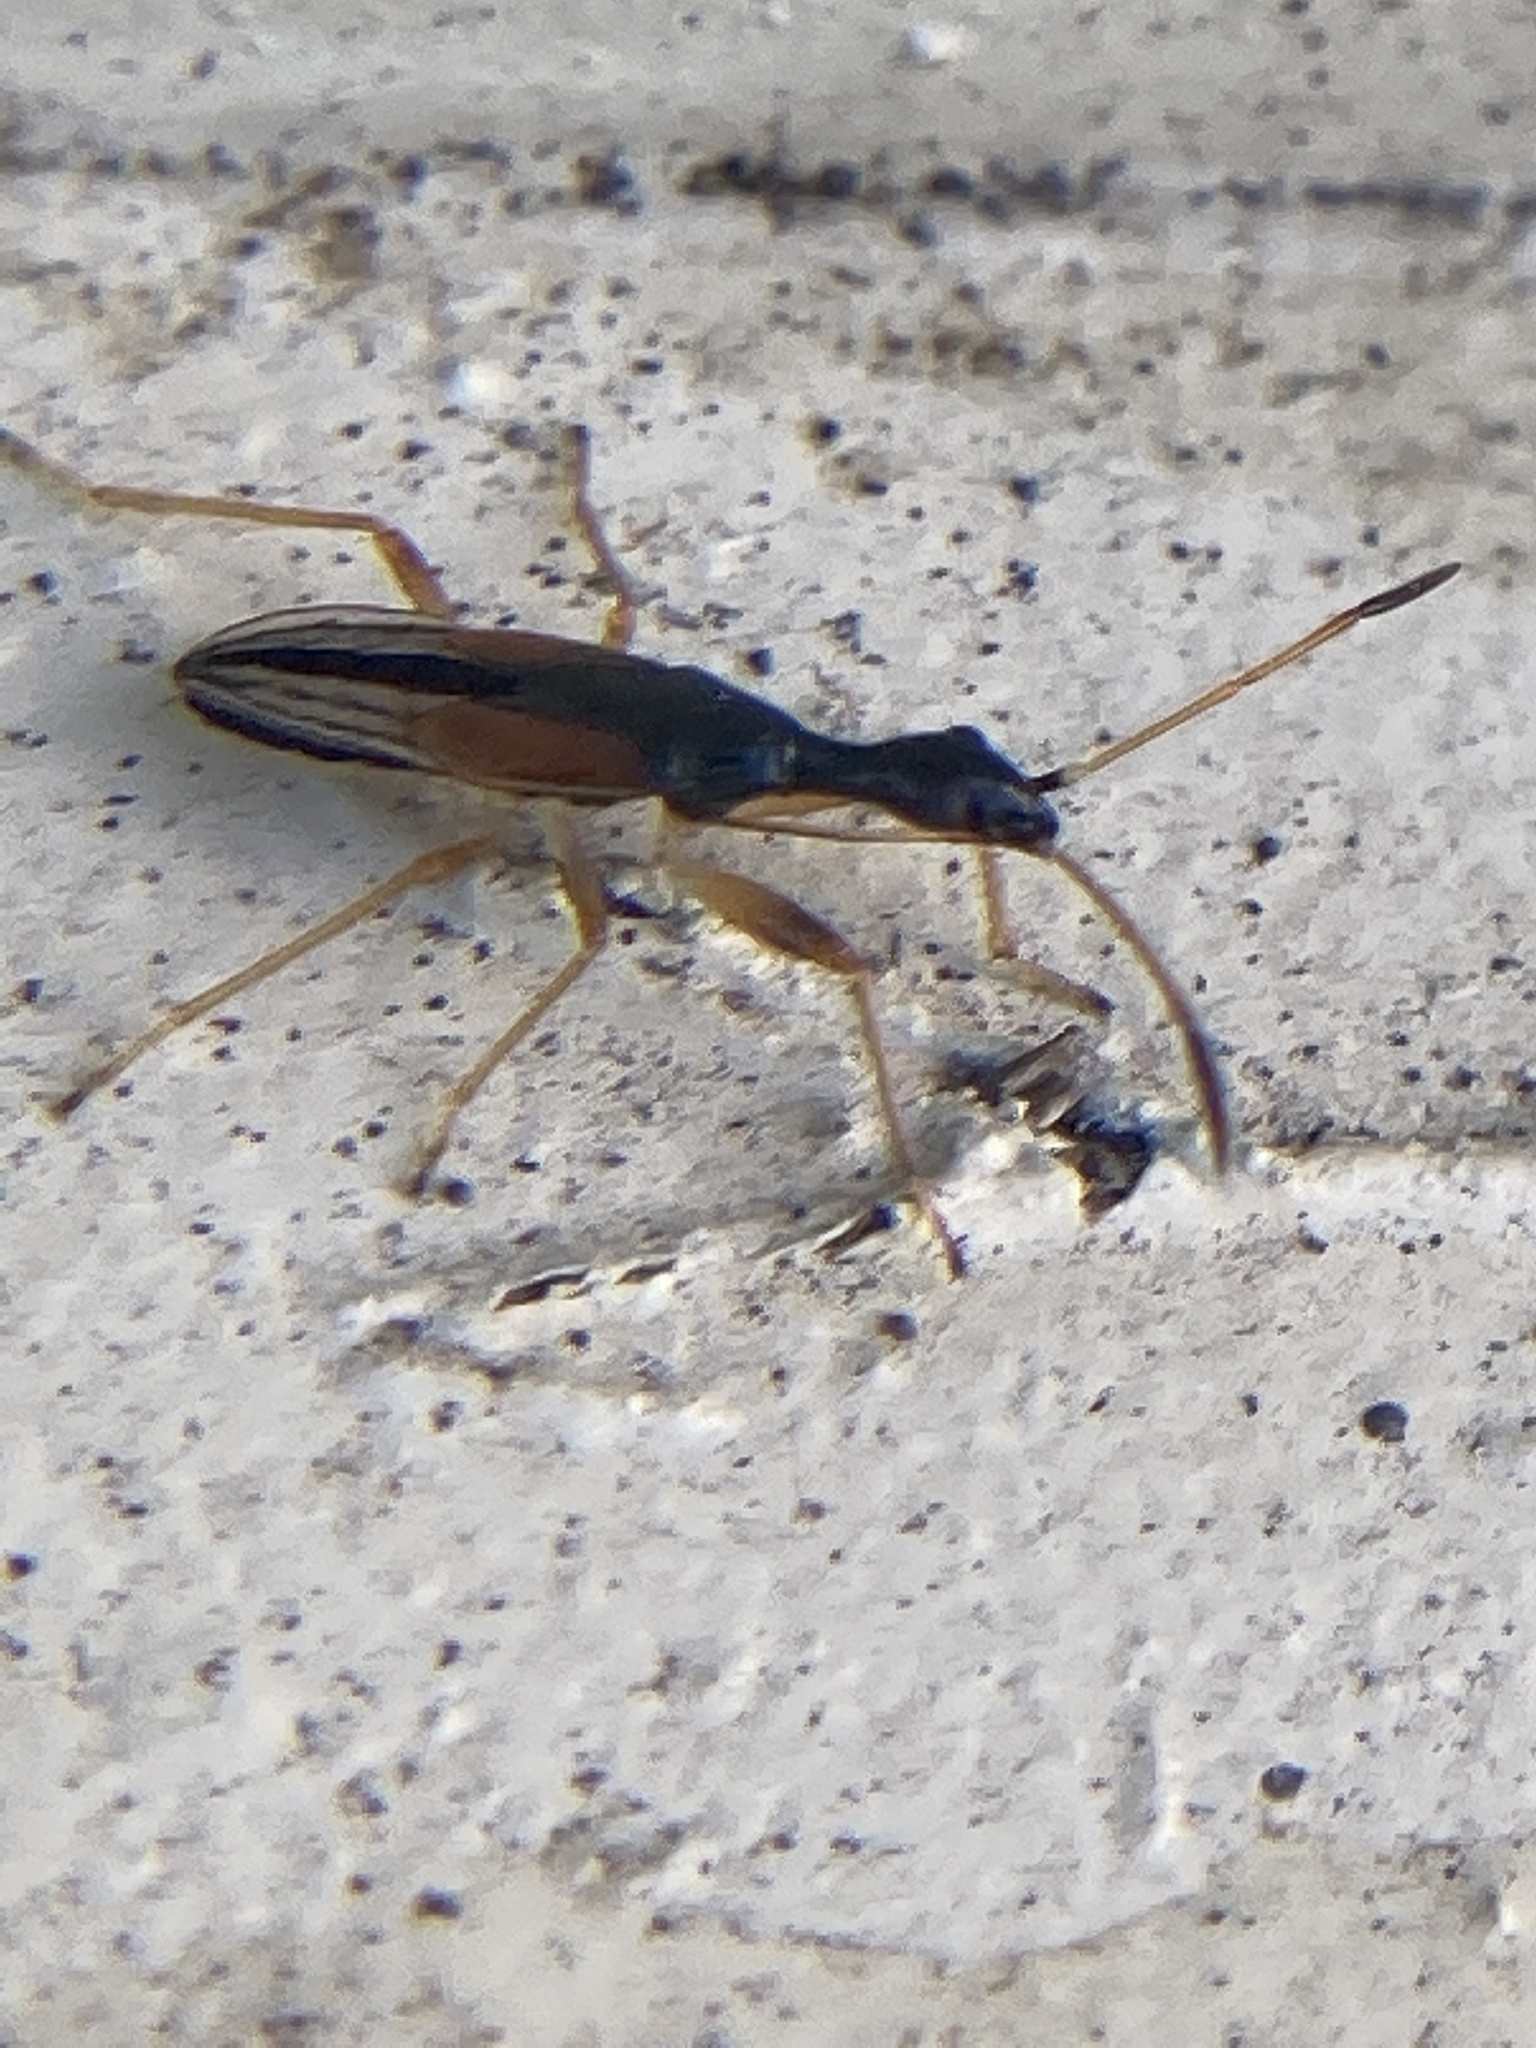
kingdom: Animalia
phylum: Arthropoda
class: Insecta
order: Hemiptera
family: Rhyparochromidae
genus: Myodocha
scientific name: Myodocha serripes
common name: Long-necked seed bug
